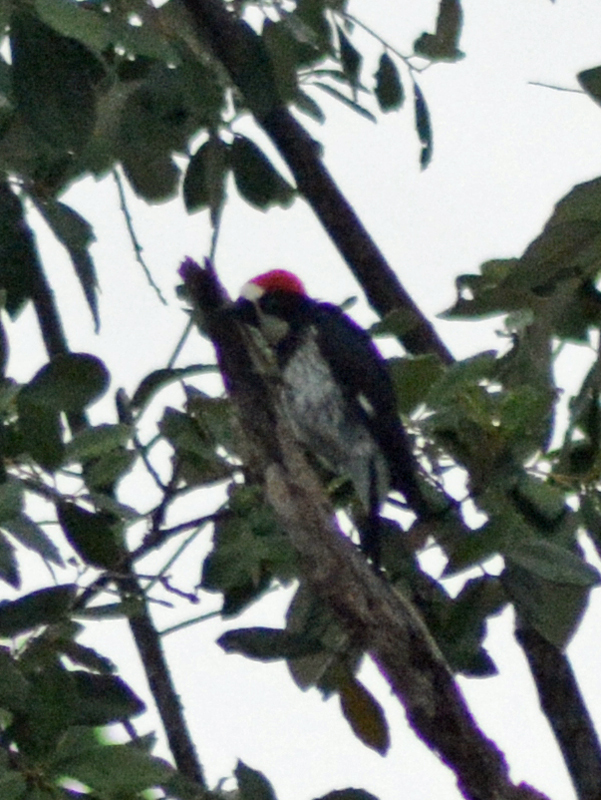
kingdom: Animalia
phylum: Chordata
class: Aves
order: Piciformes
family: Picidae
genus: Melanerpes
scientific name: Melanerpes formicivorus
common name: Acorn woodpecker
